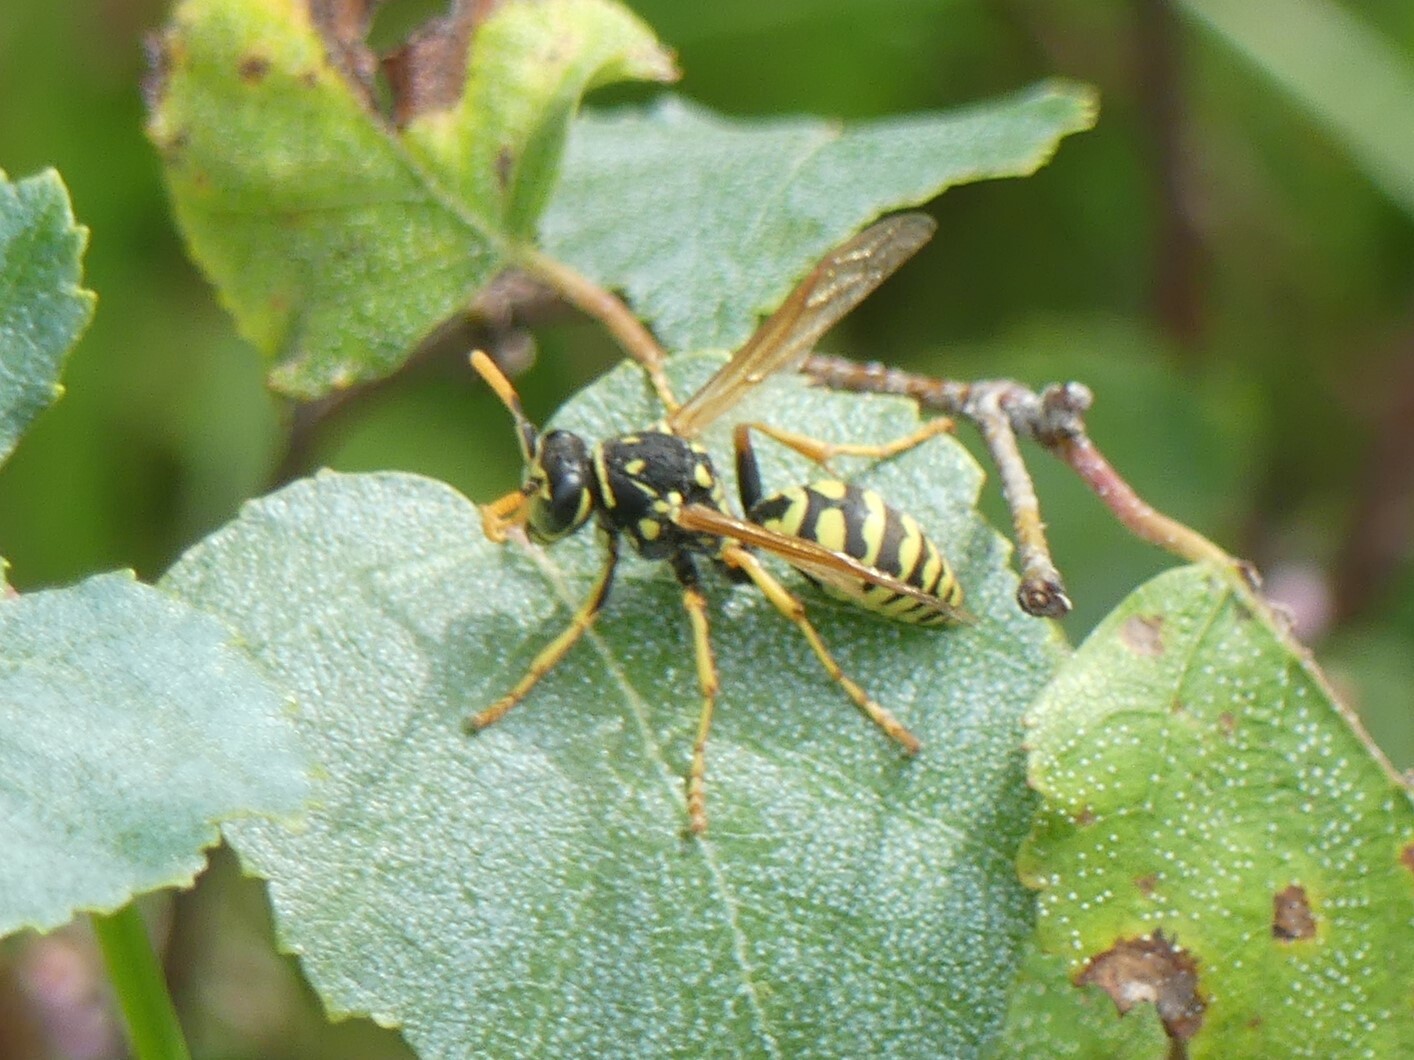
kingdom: Animalia
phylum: Arthropoda
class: Insecta
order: Hymenoptera
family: Eumenidae
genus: Polistes
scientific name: Polistes dominula
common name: Paper wasp
